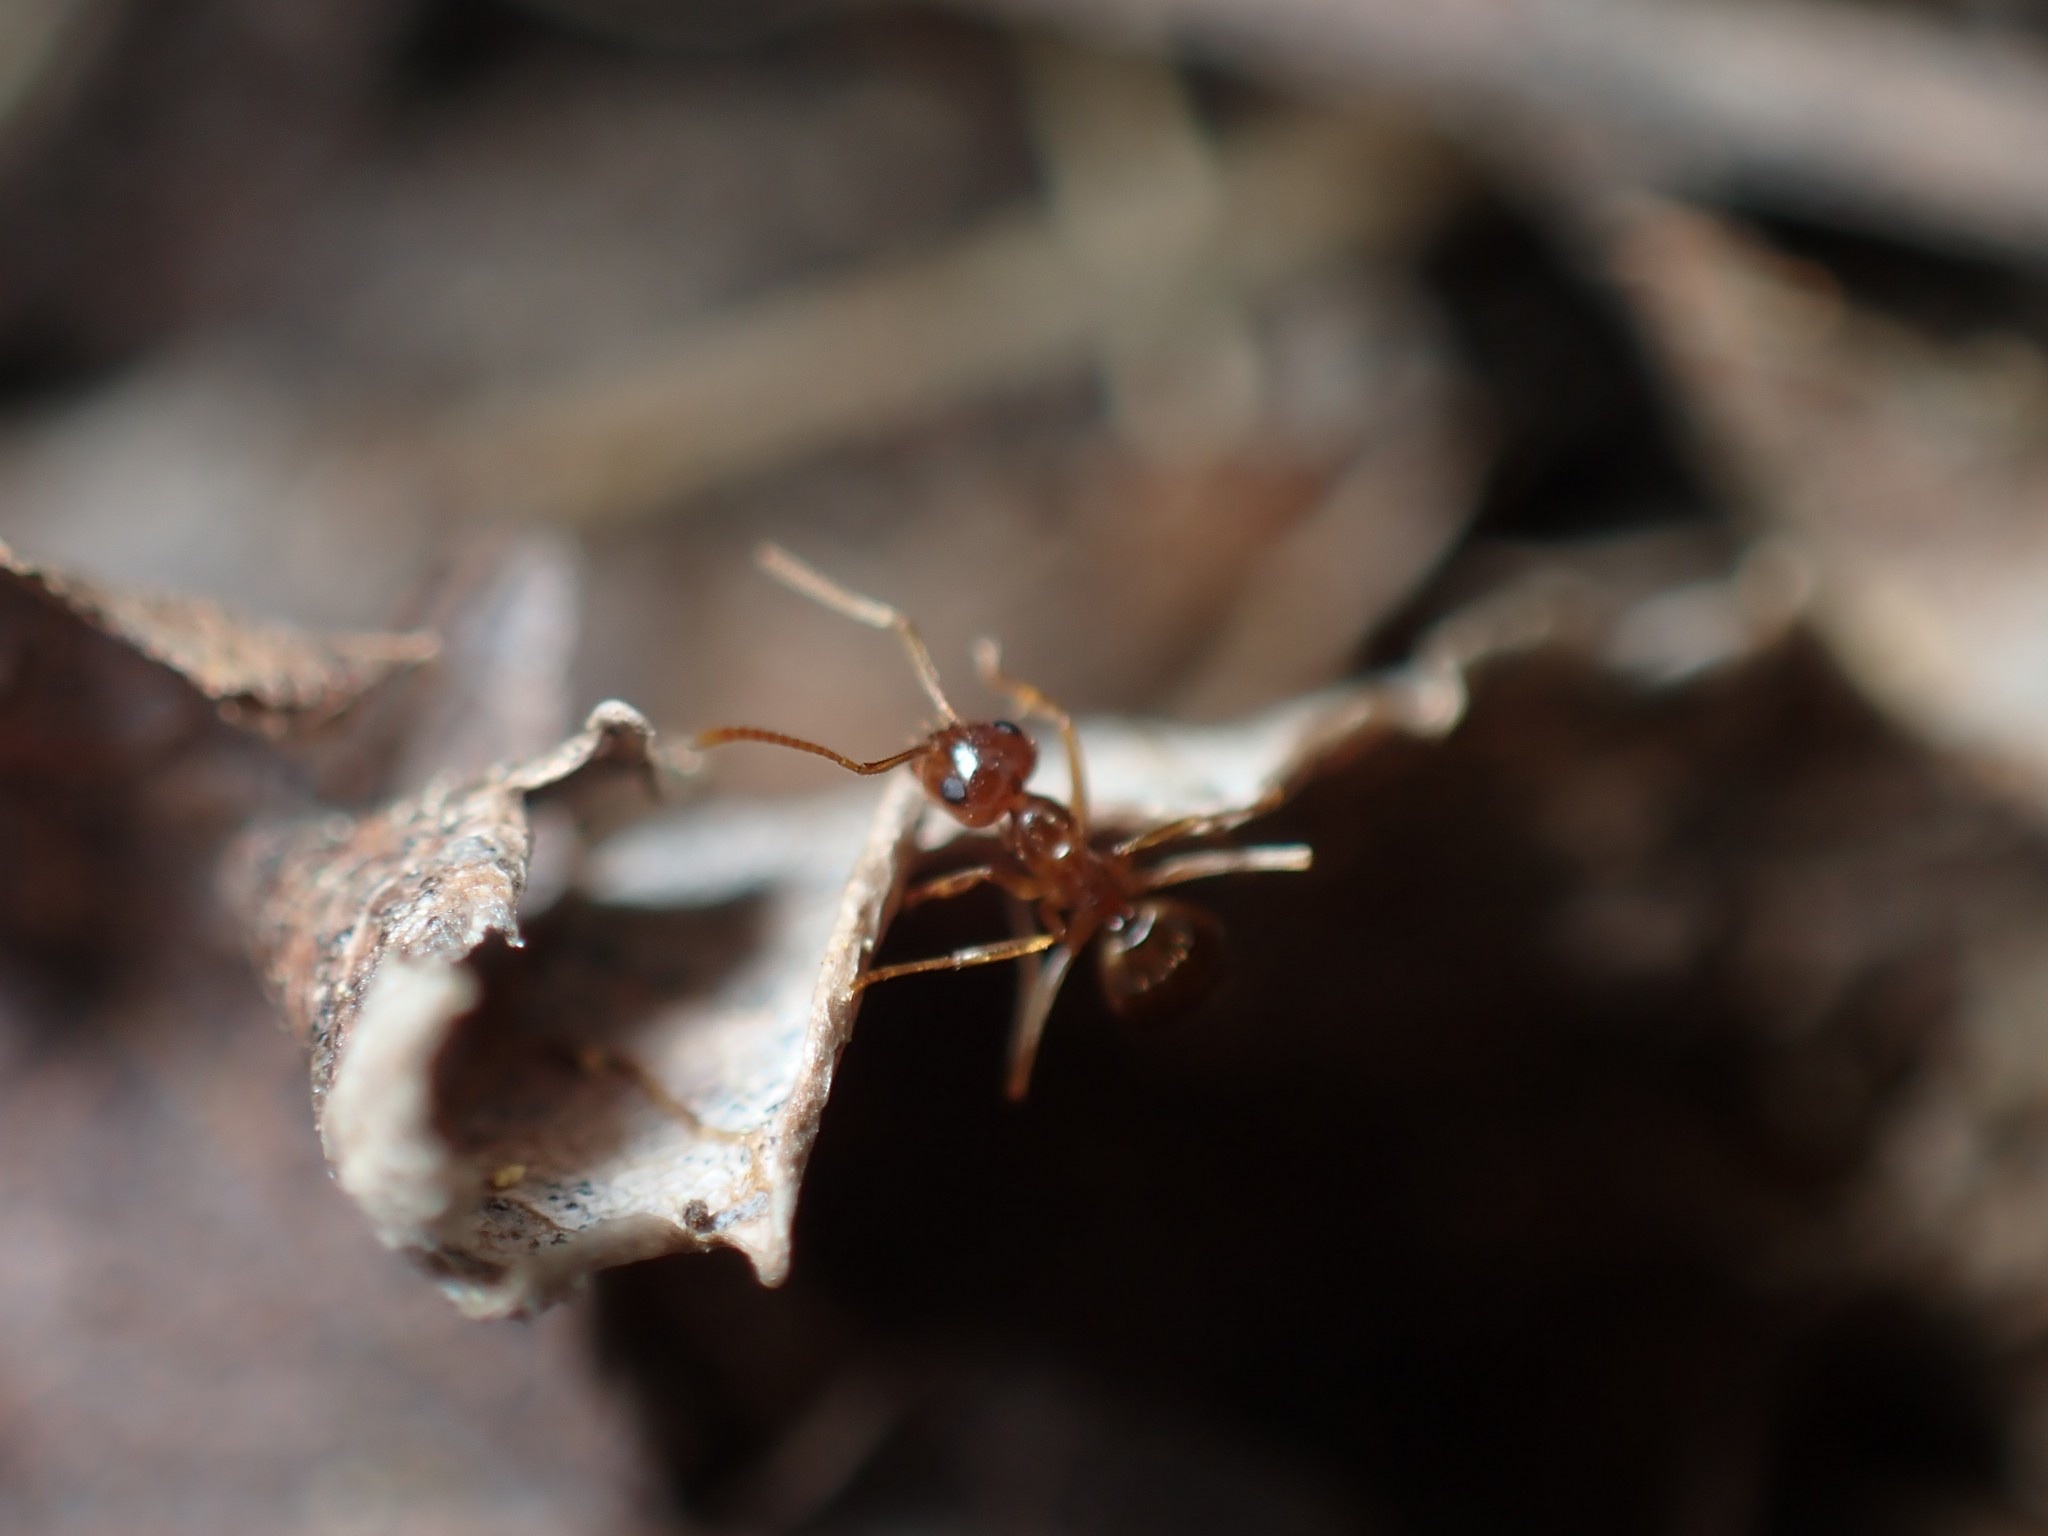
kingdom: Animalia
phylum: Arthropoda
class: Insecta
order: Hymenoptera
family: Formicidae
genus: Prenolepis
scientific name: Prenolepis imparis
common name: Small honey ant
